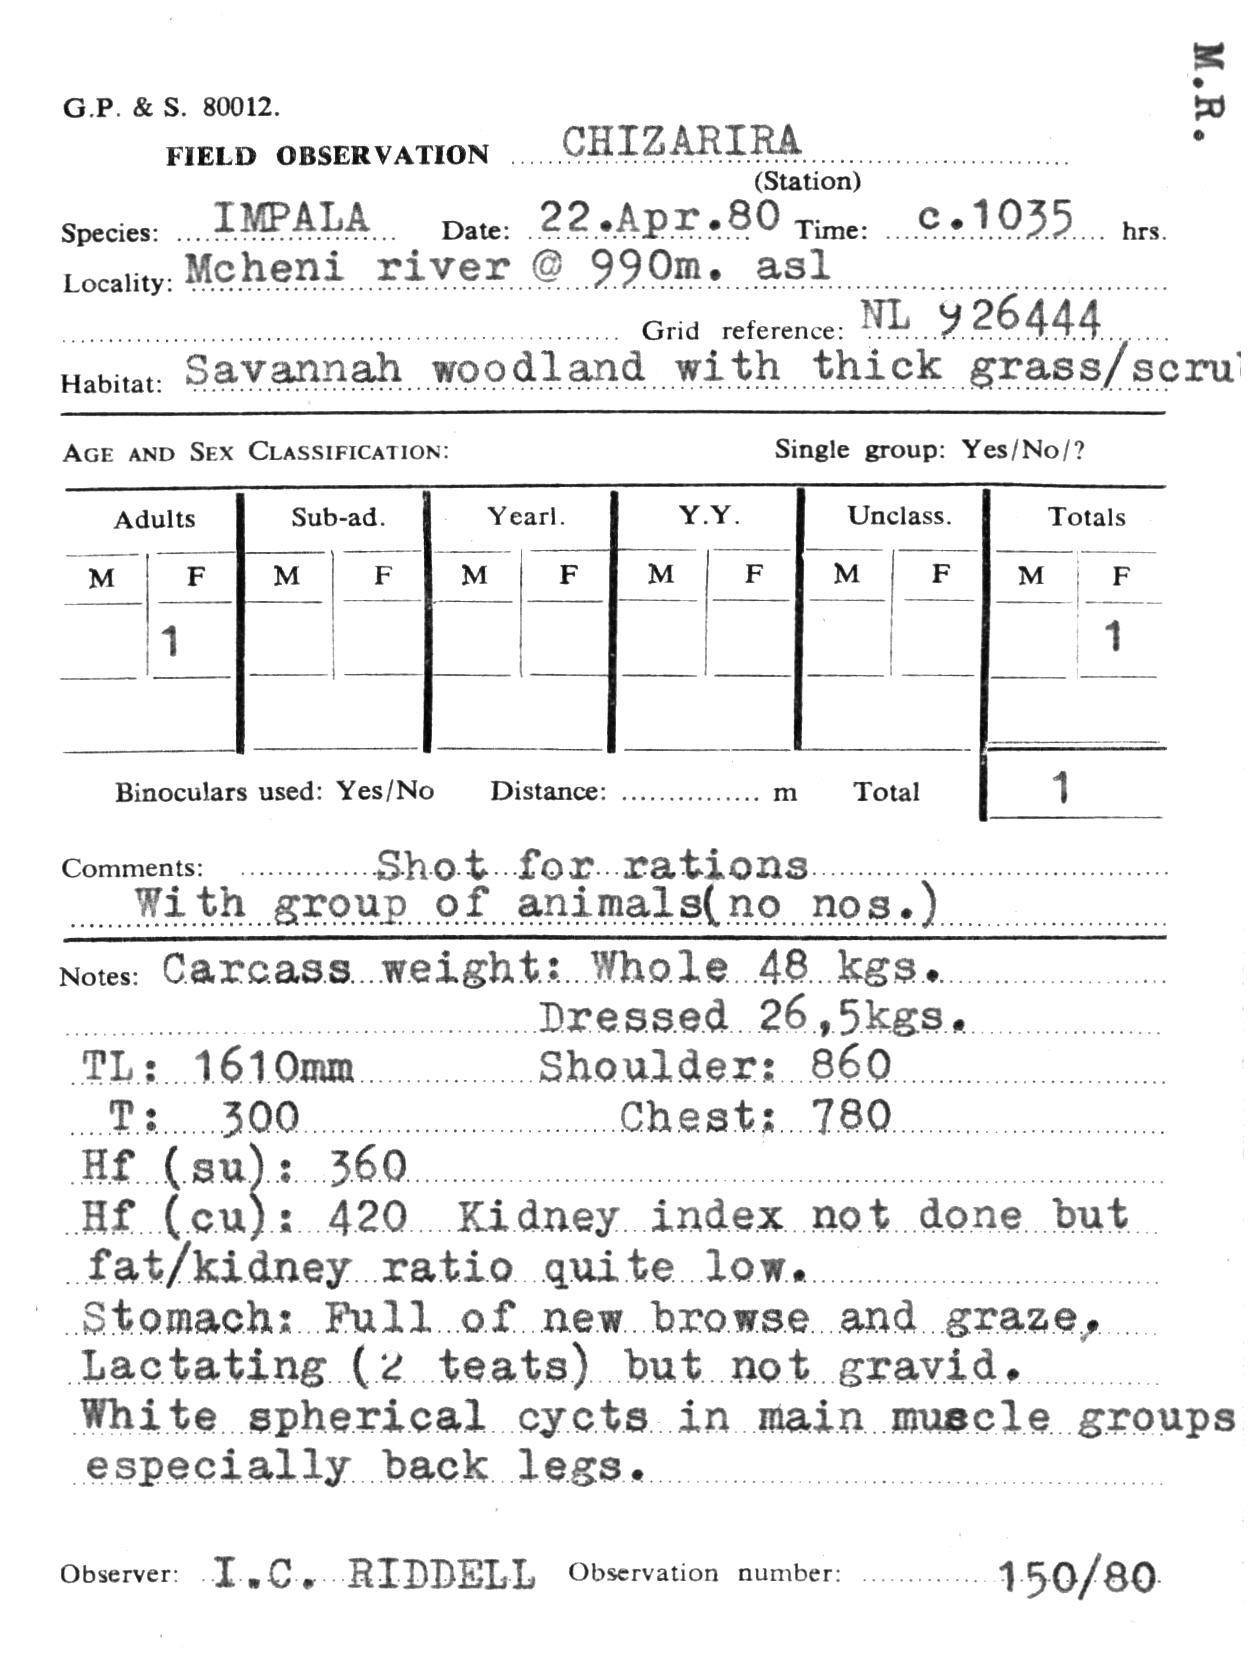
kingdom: Animalia
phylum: Chordata
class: Mammalia
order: Artiodactyla
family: Bovidae
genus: Aepyceros
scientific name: Aepyceros melampus
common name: Impala
